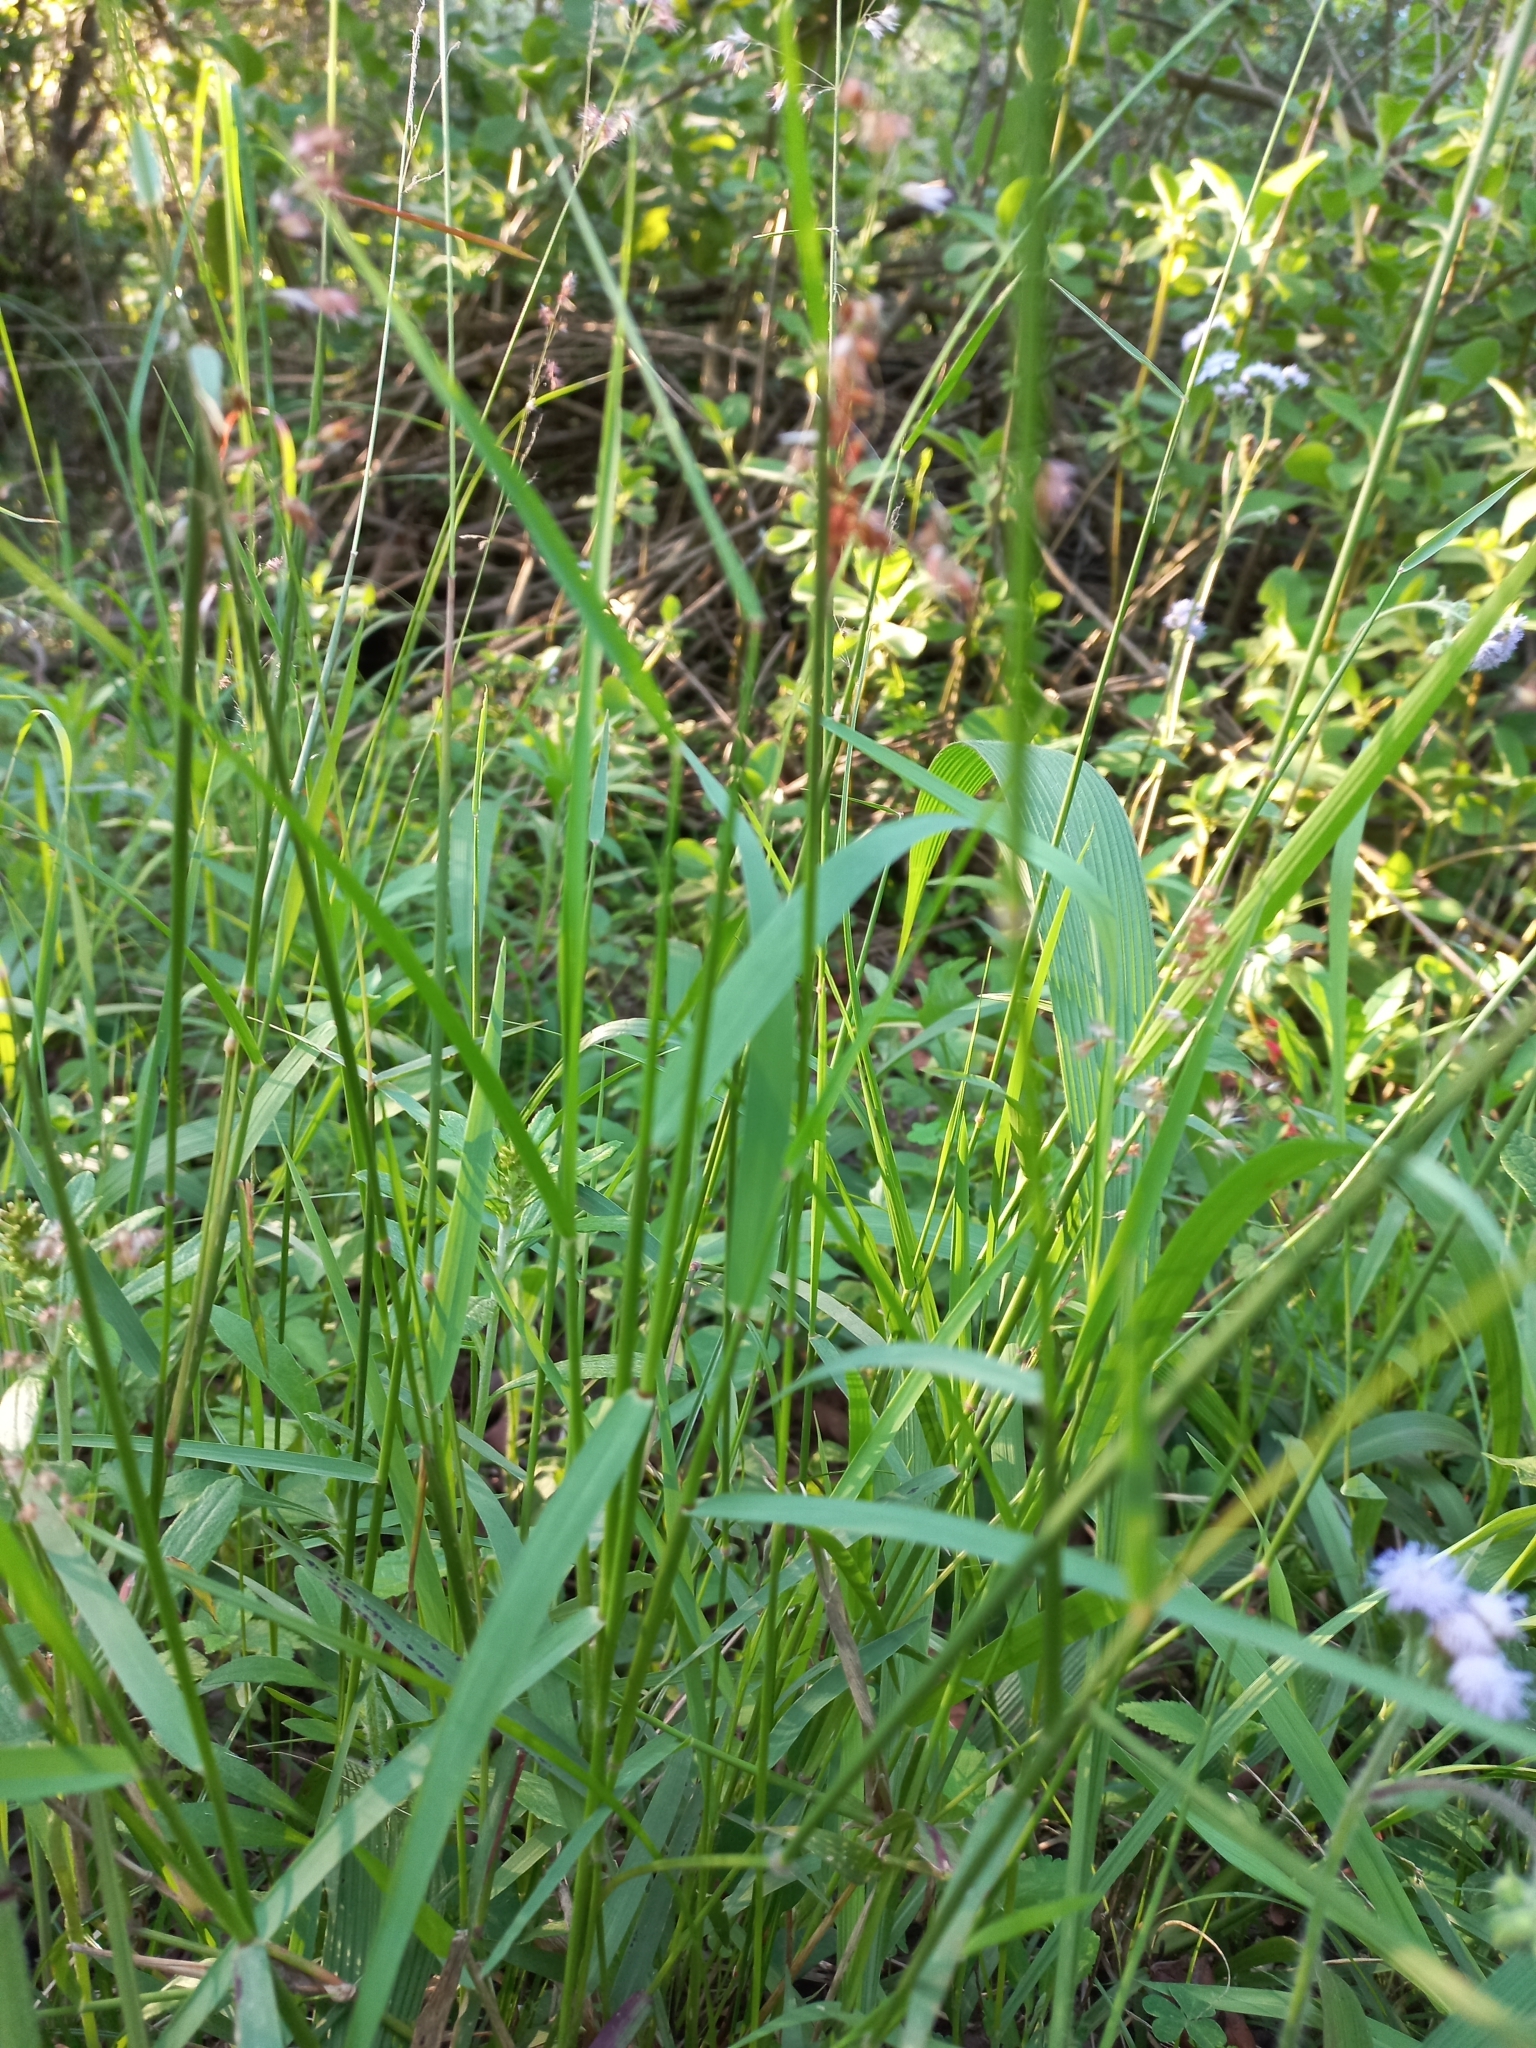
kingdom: Plantae
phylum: Tracheophyta
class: Liliopsida
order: Poales
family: Poaceae
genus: Melinis
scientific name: Melinis repens
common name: Rose natal grass
